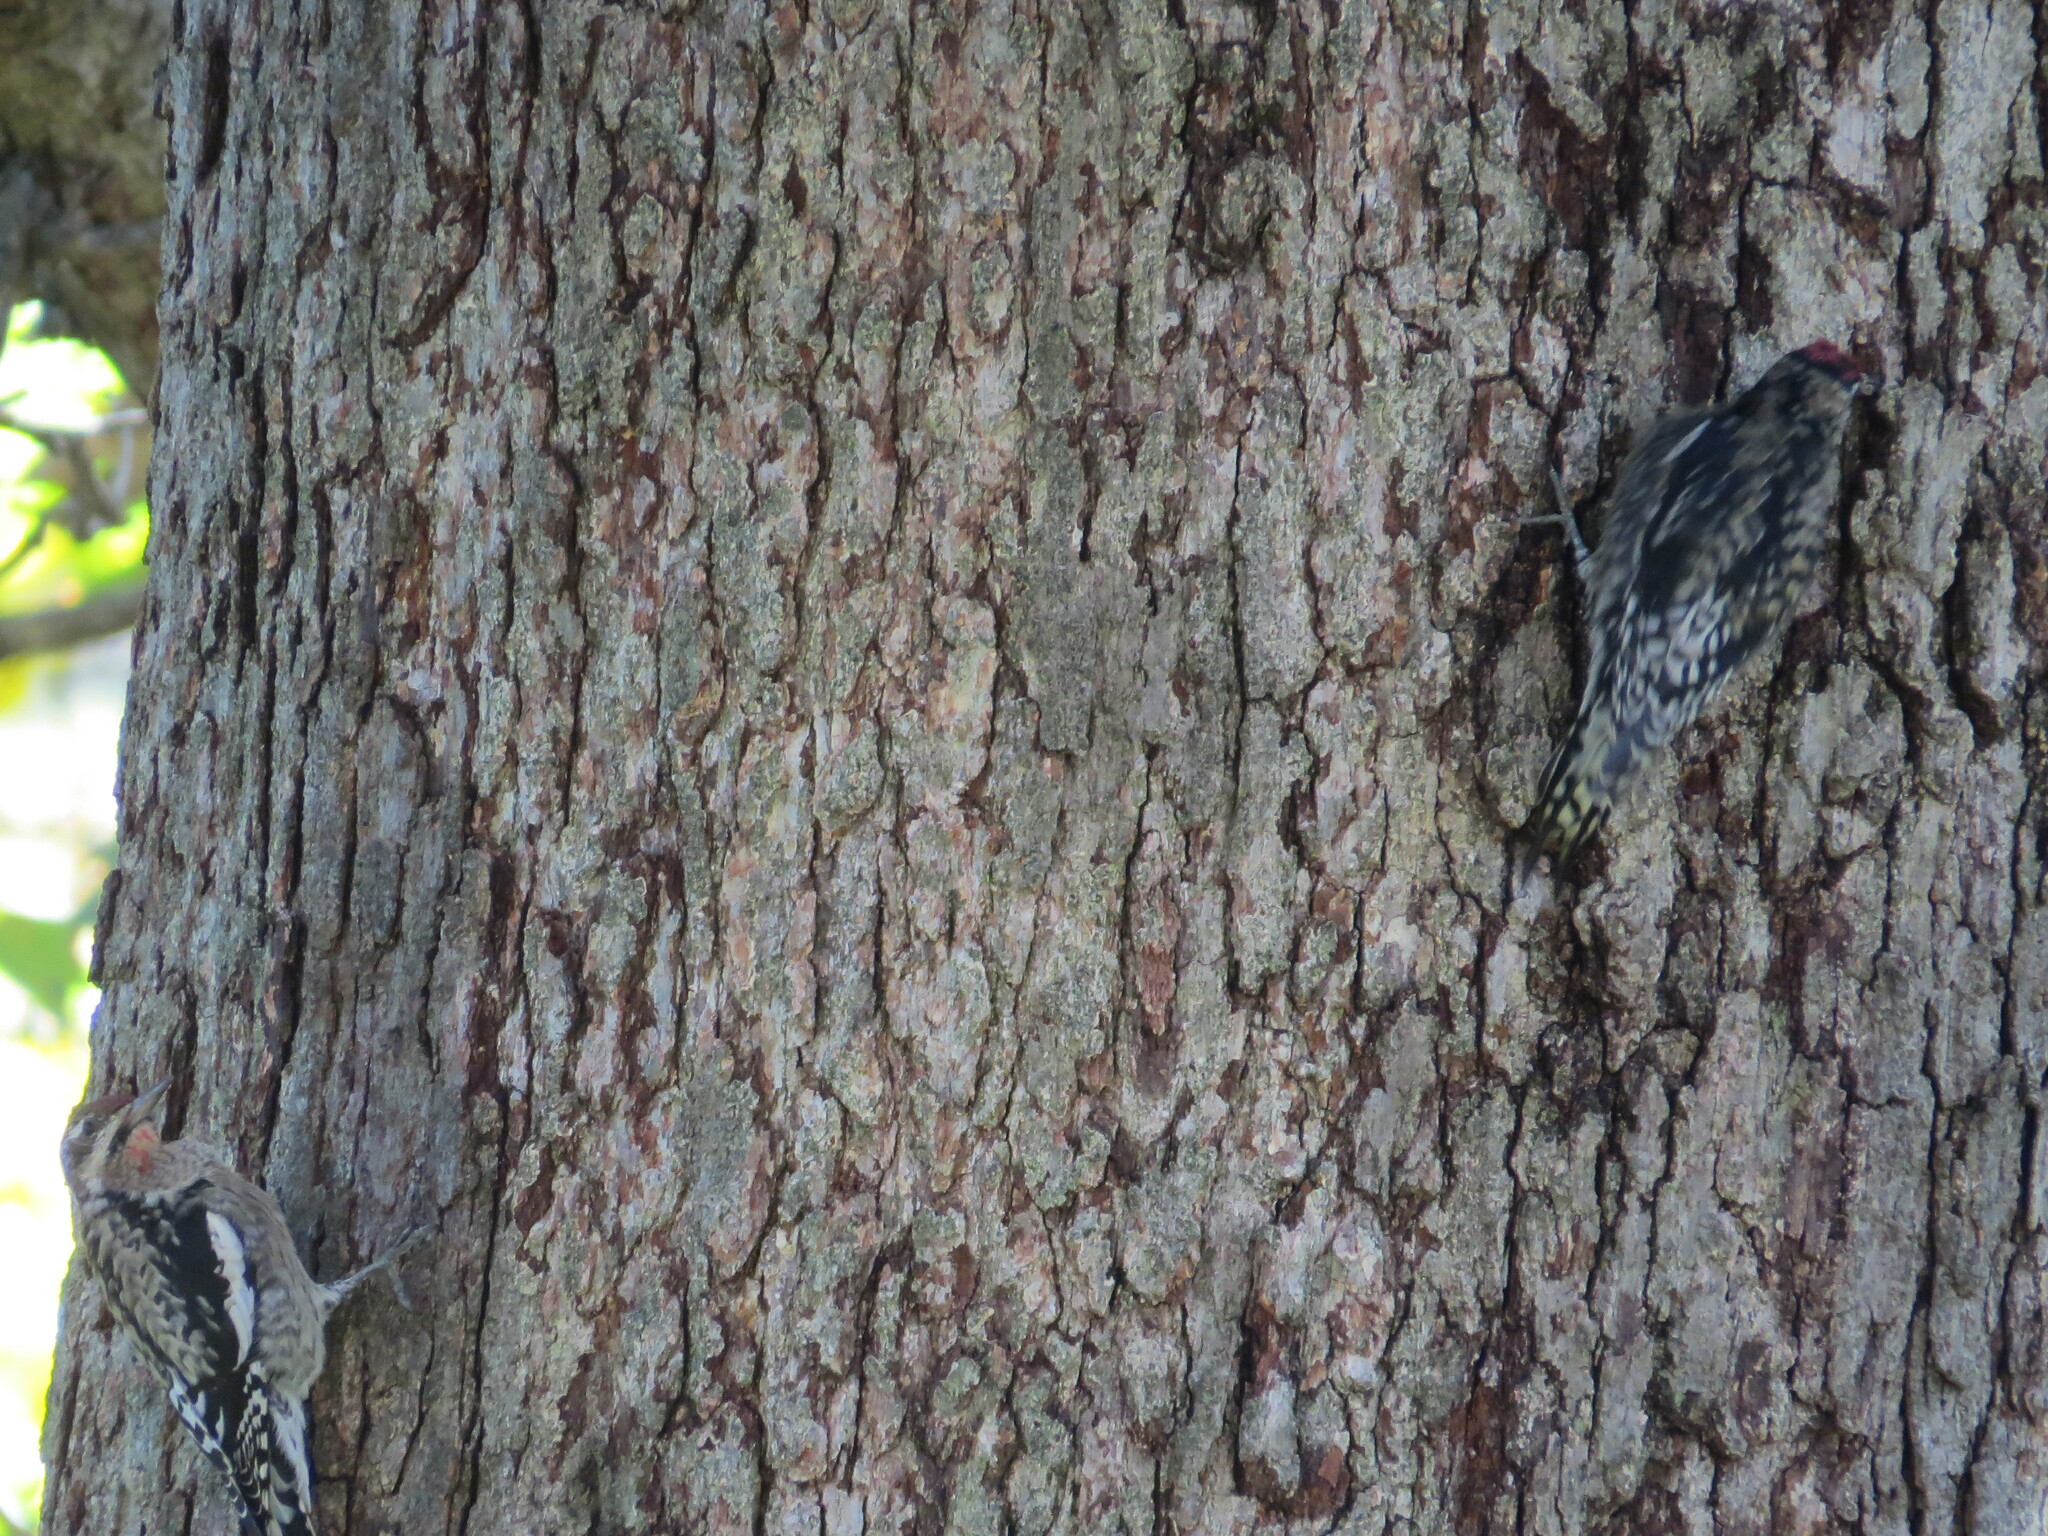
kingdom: Animalia
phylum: Chordata
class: Aves
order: Piciformes
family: Picidae
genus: Sphyrapicus
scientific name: Sphyrapicus varius
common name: Yellow-bellied sapsucker
